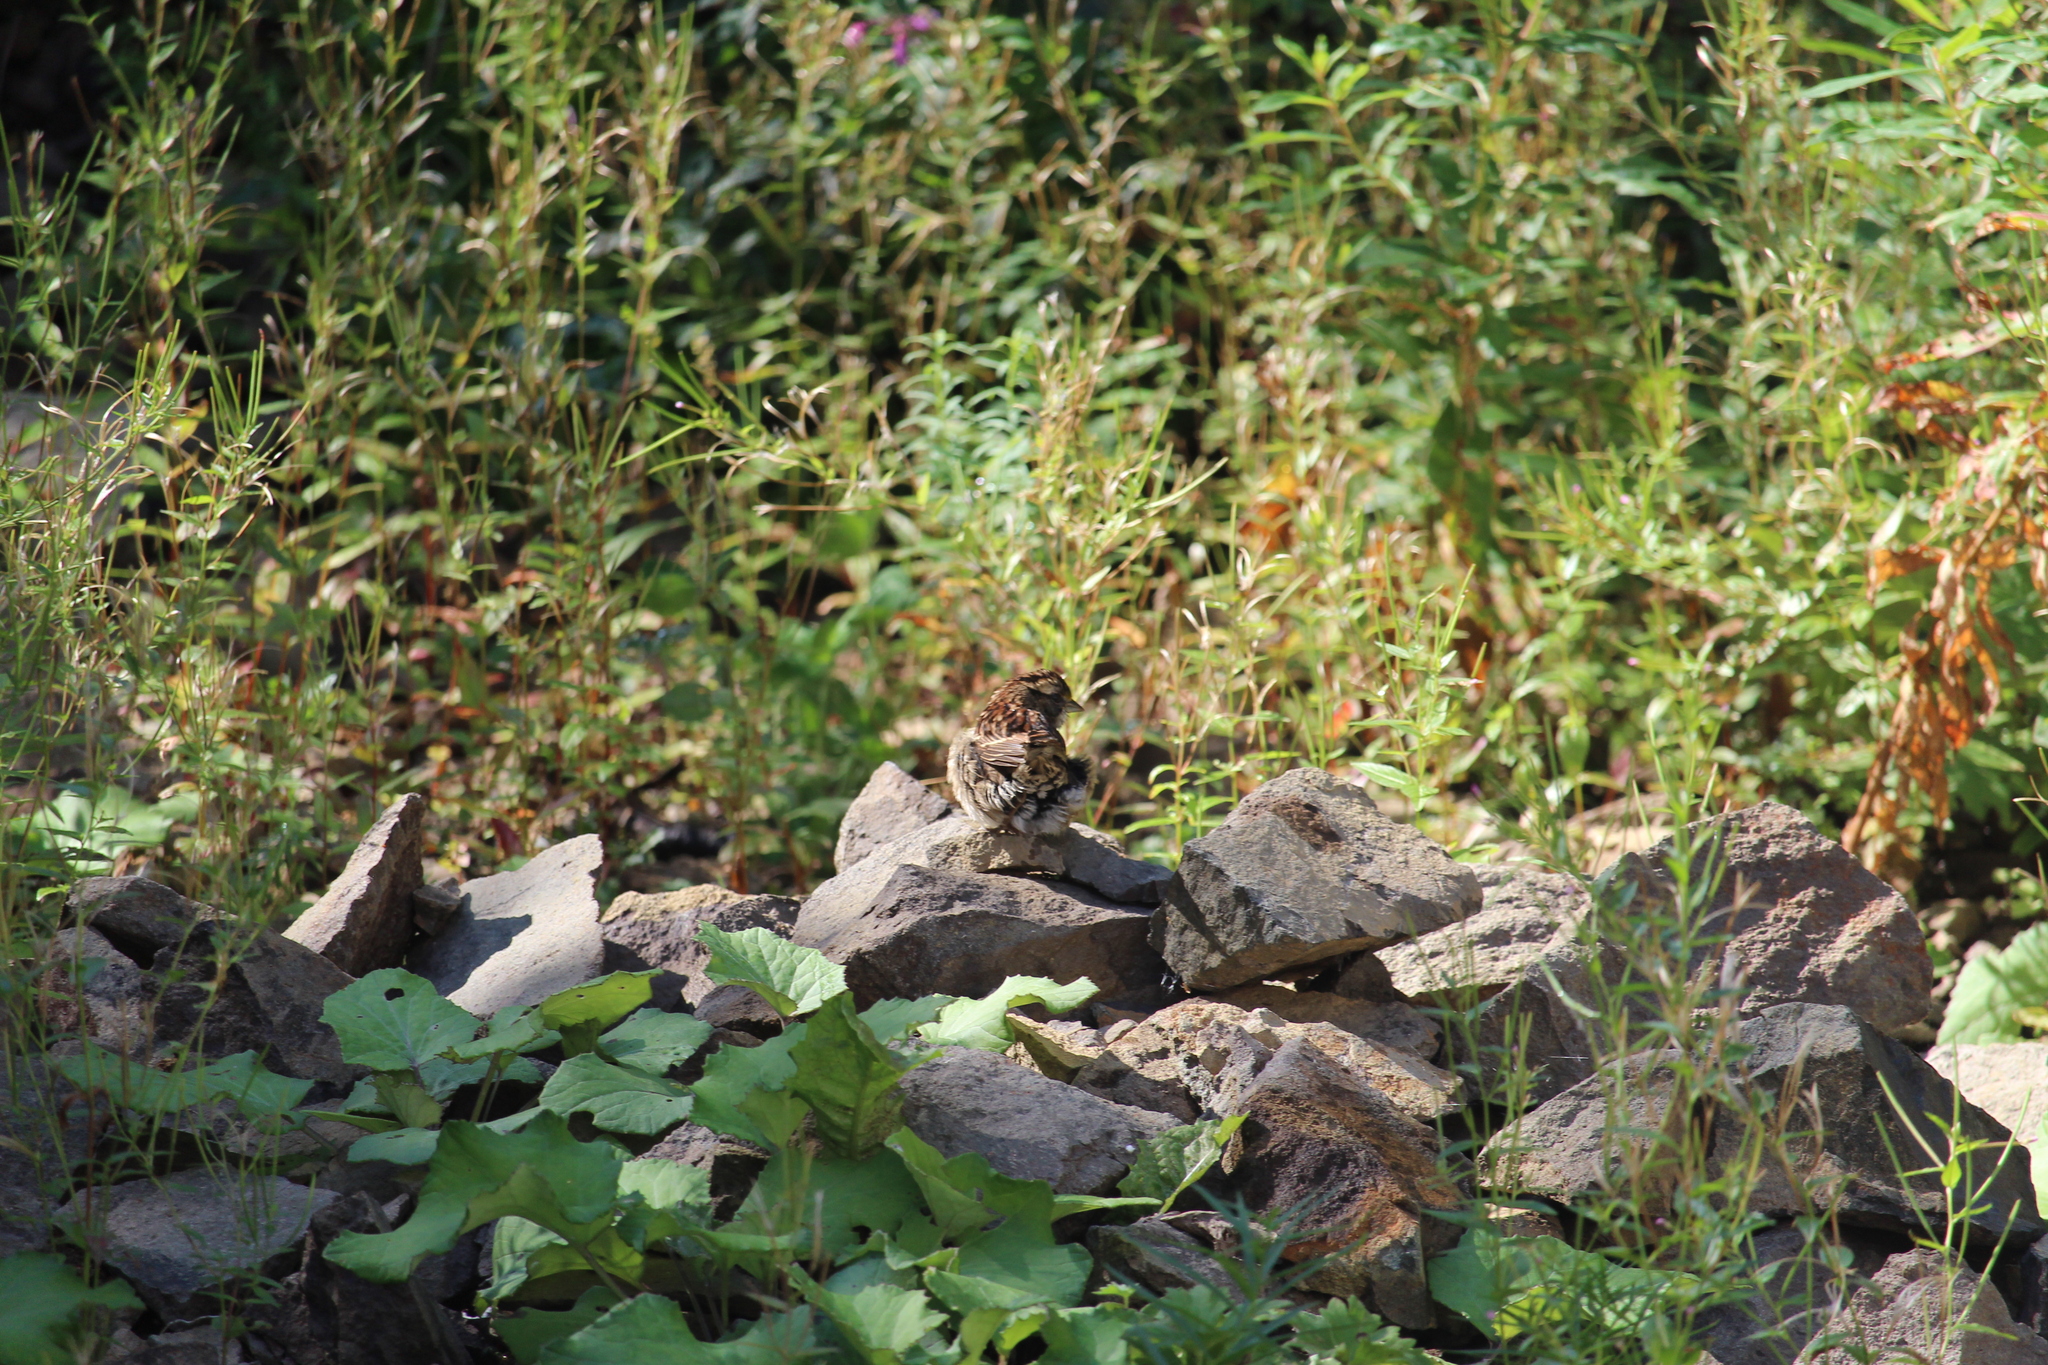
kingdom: Animalia
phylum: Chordata
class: Aves
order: Passeriformes
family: Passerellidae
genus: Zonotrichia
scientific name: Zonotrichia albicollis
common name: White-throated sparrow
